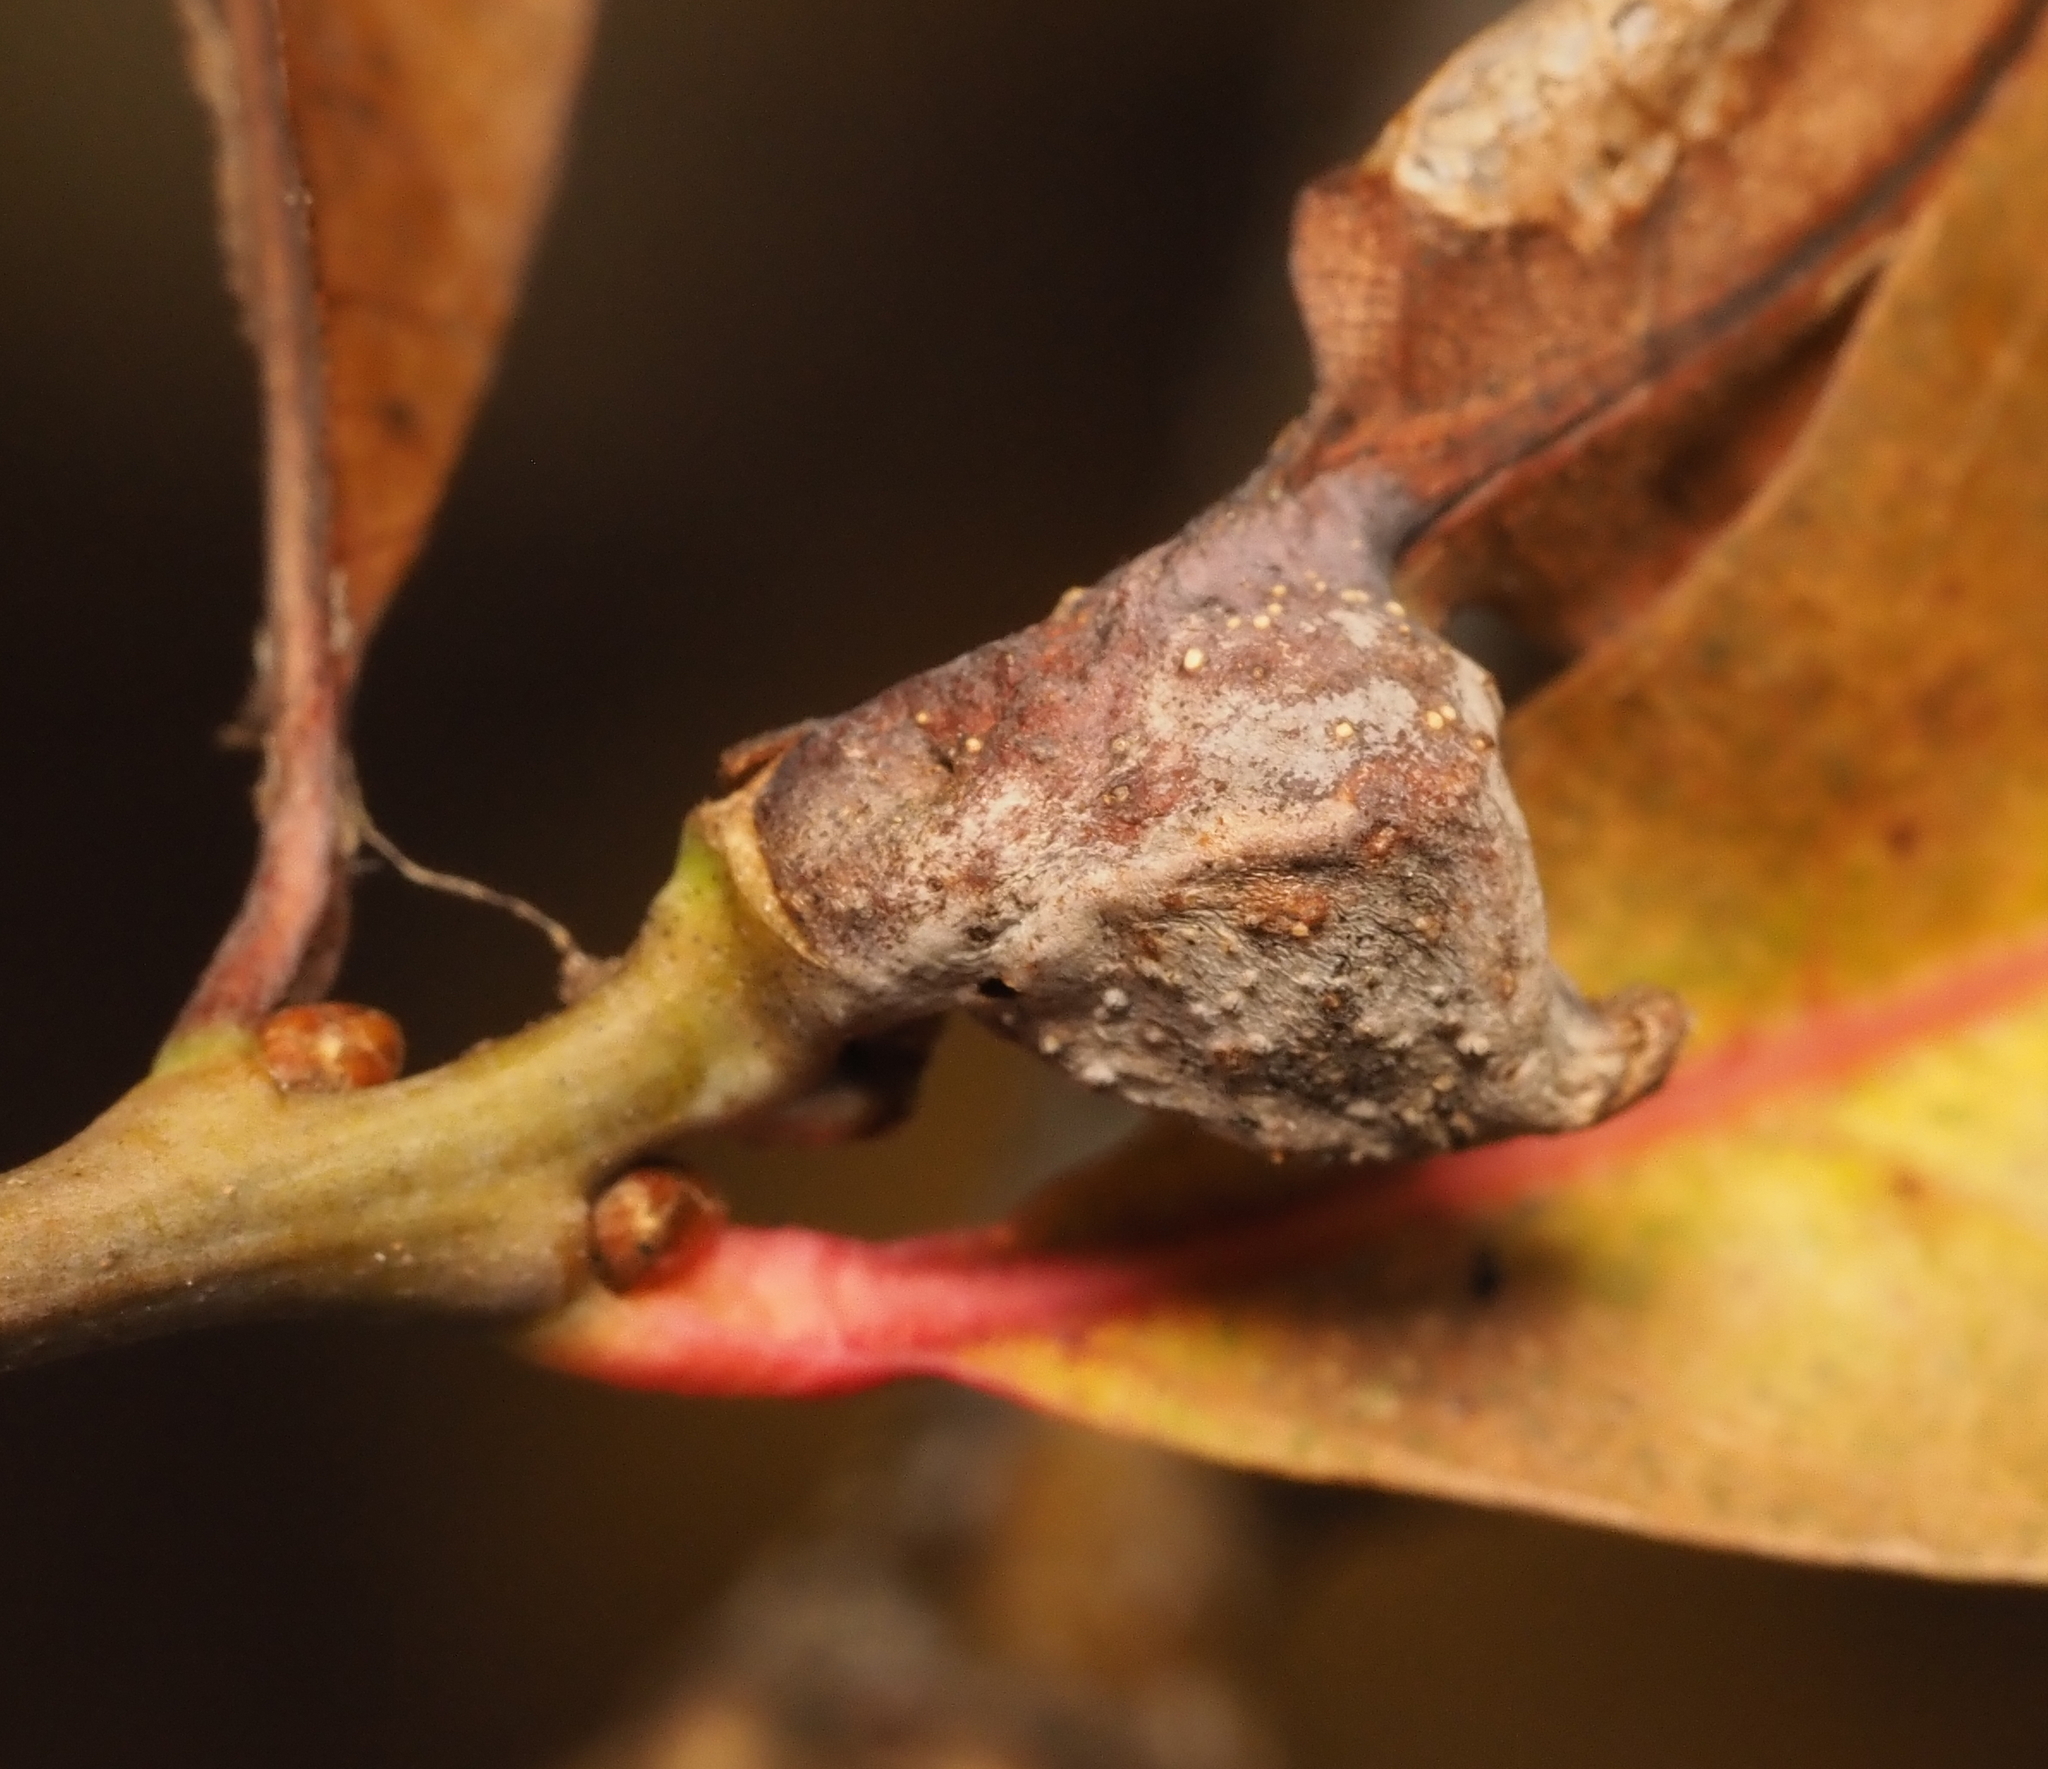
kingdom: Animalia
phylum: Arthropoda
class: Insecta
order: Hymenoptera
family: Cynipidae
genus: Andricus
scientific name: Andricus
